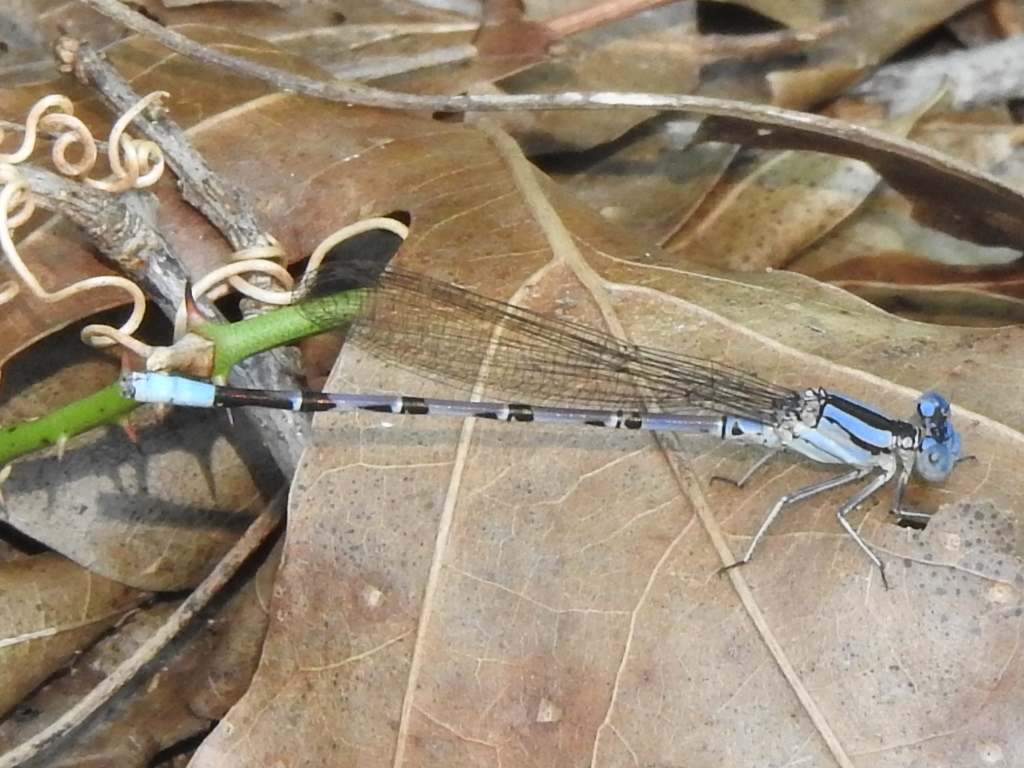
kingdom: Animalia
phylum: Arthropoda
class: Insecta
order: Odonata
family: Coenagrionidae
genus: Argia
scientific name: Argia funebris
